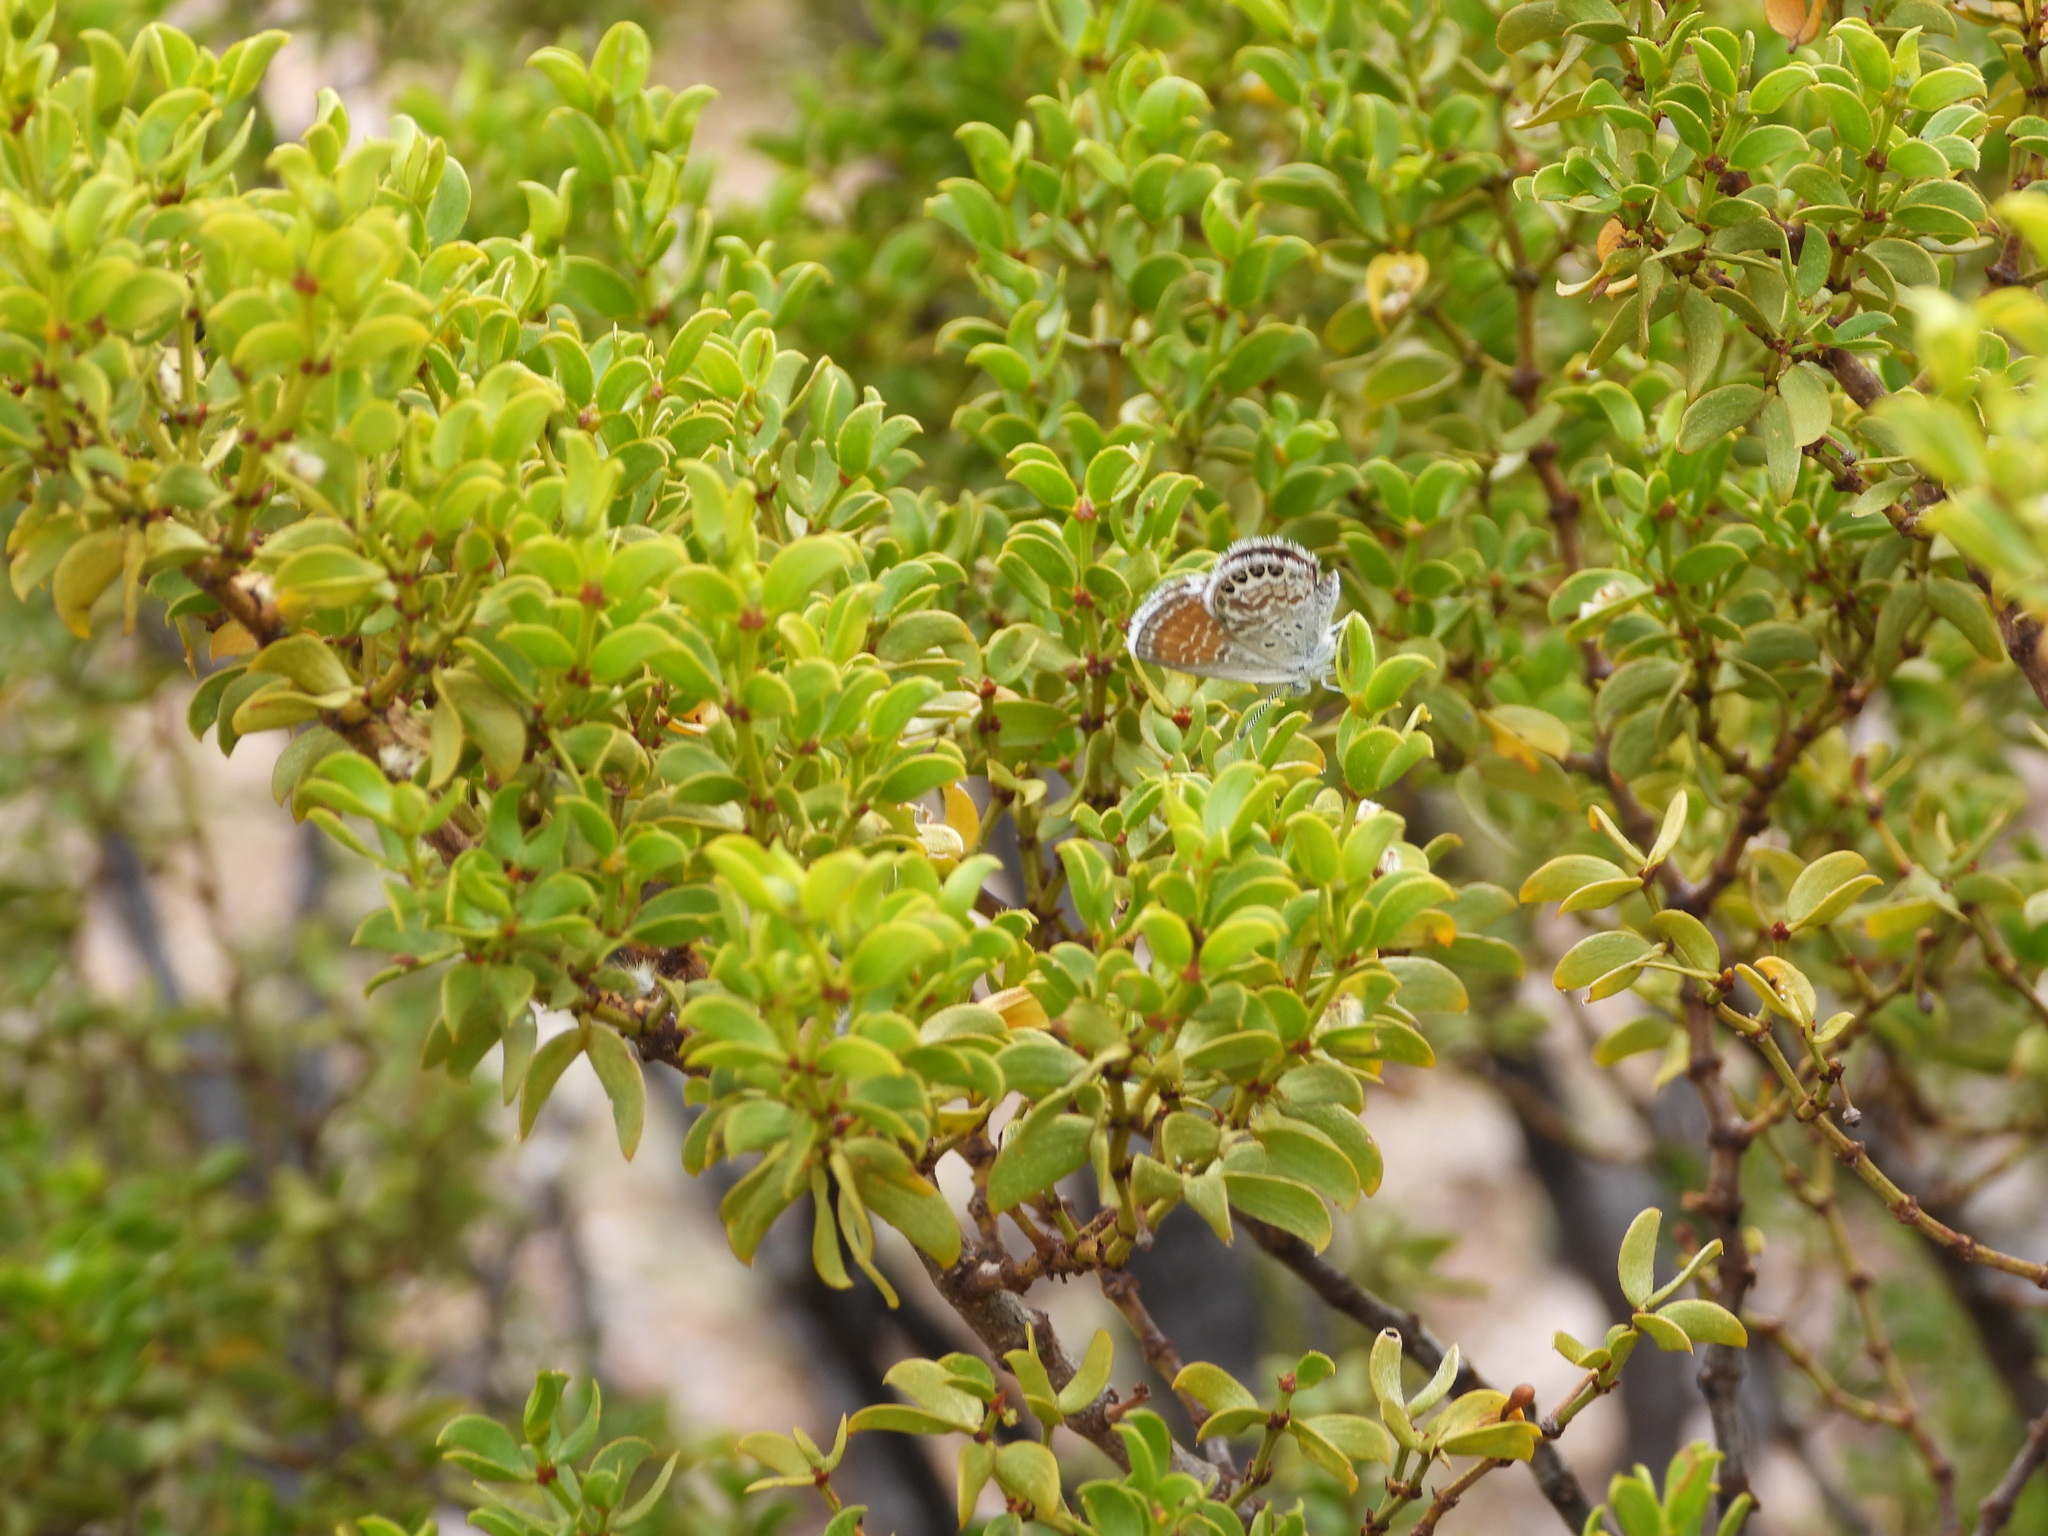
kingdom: Animalia
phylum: Arthropoda
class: Insecta
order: Lepidoptera
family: Lycaenidae
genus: Brephidium
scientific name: Brephidium exilis
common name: Pygmy blue
